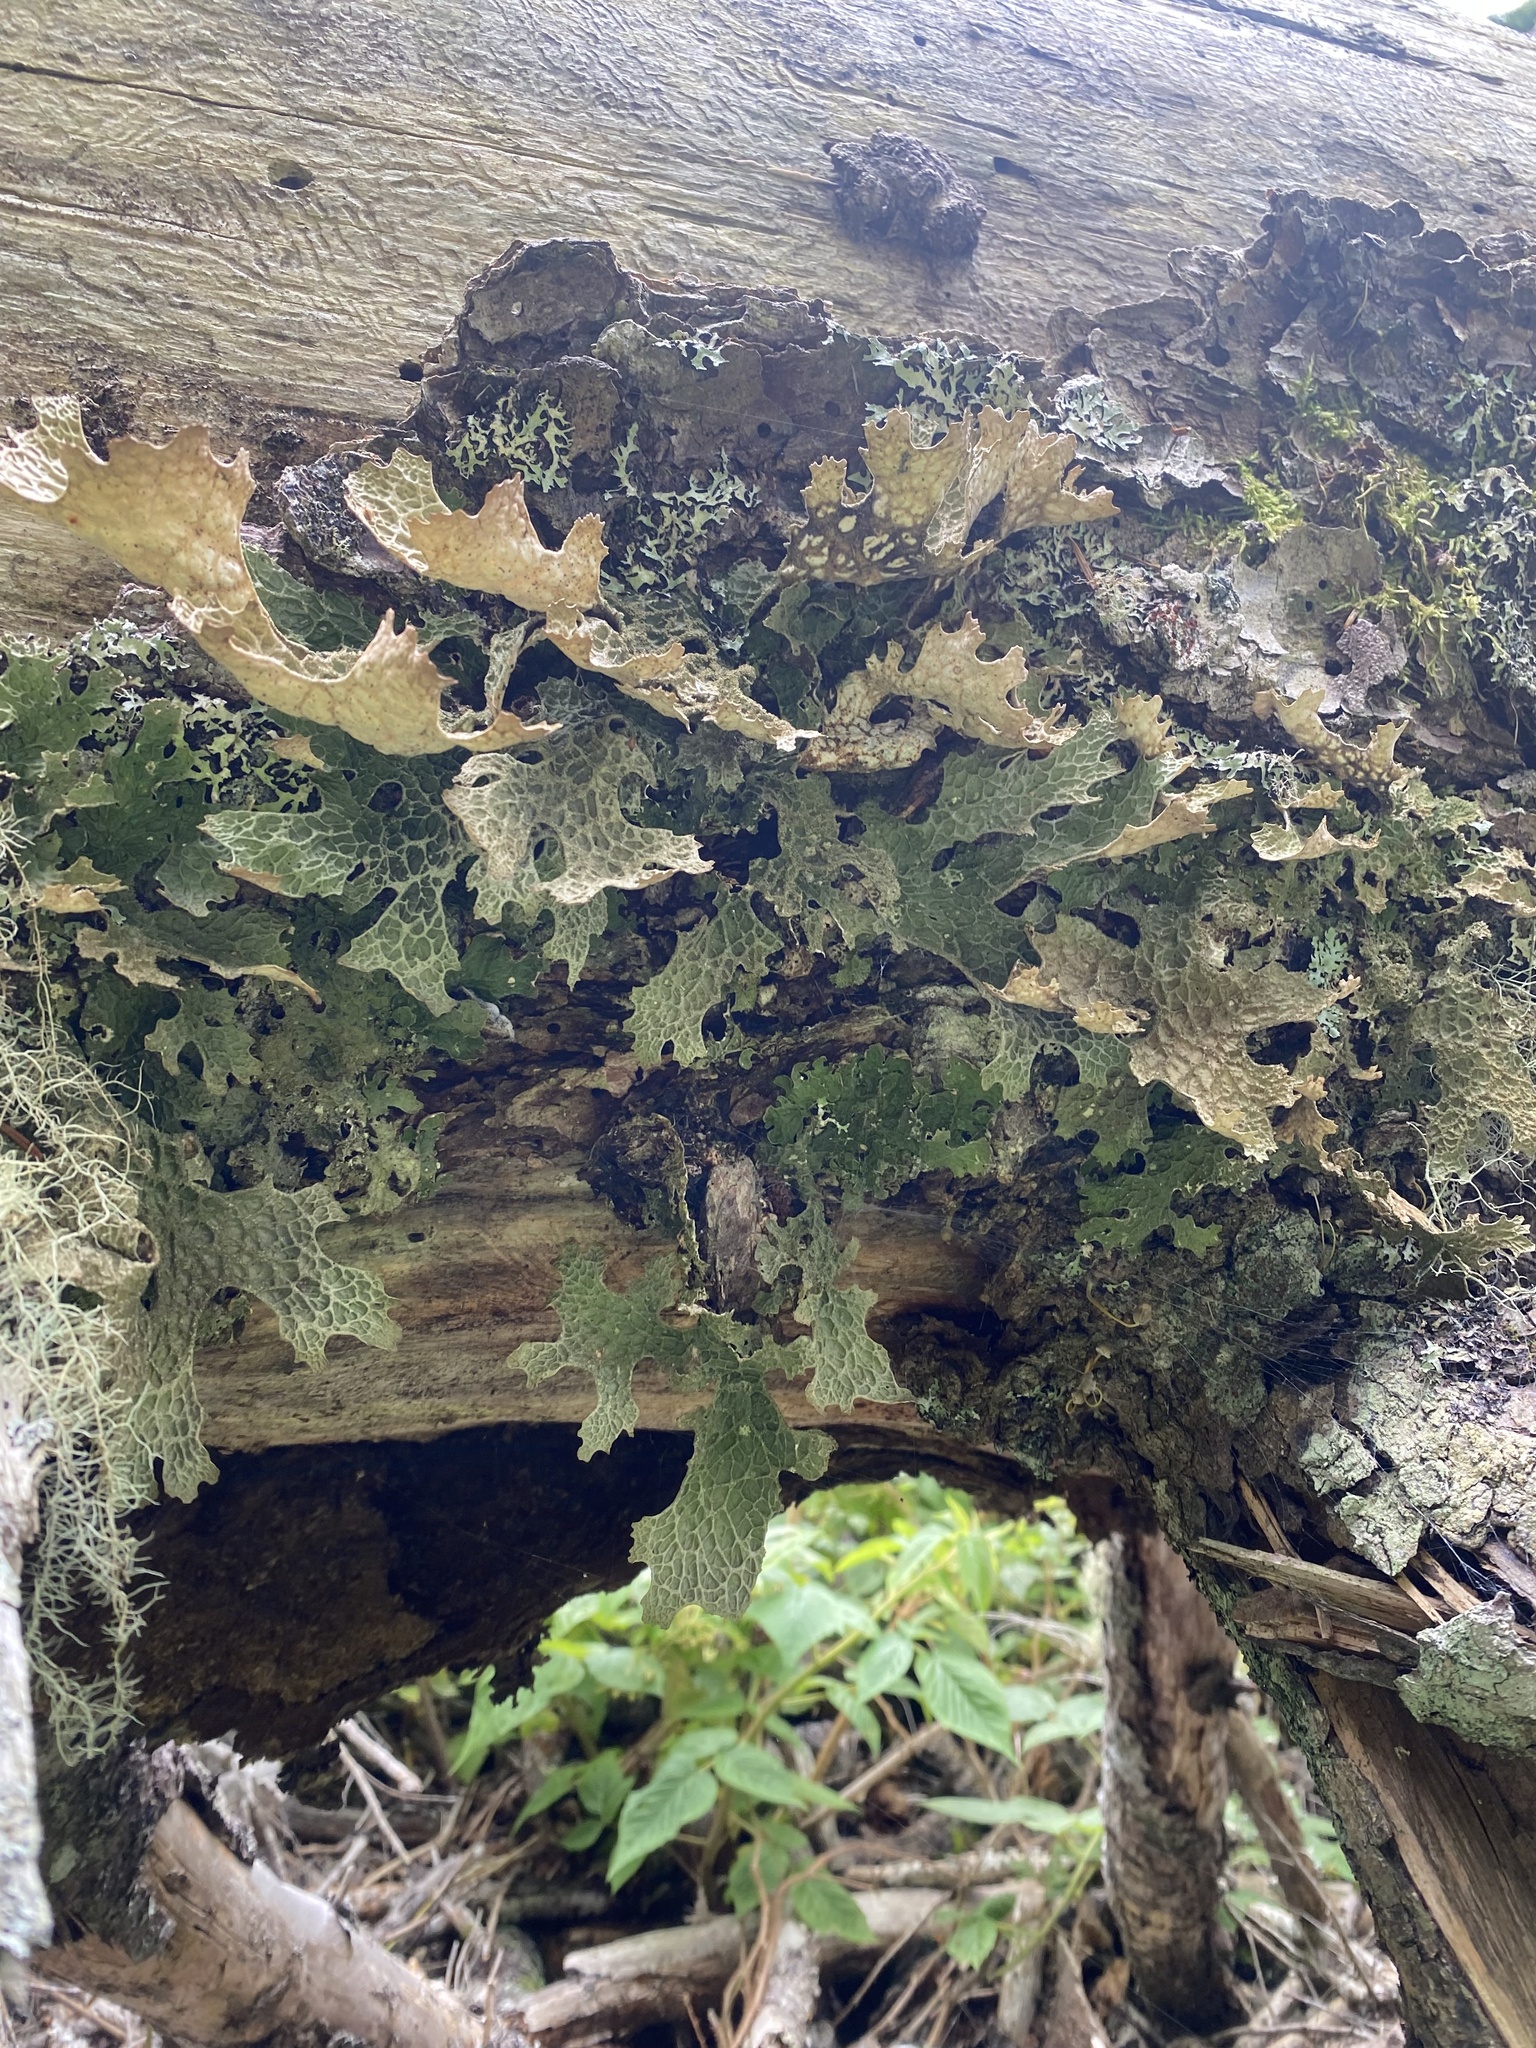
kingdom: Fungi
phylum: Ascomycota
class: Lecanoromycetes
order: Peltigerales
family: Lobariaceae
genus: Lobaria
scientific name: Lobaria pulmonaria
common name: Lungwort
